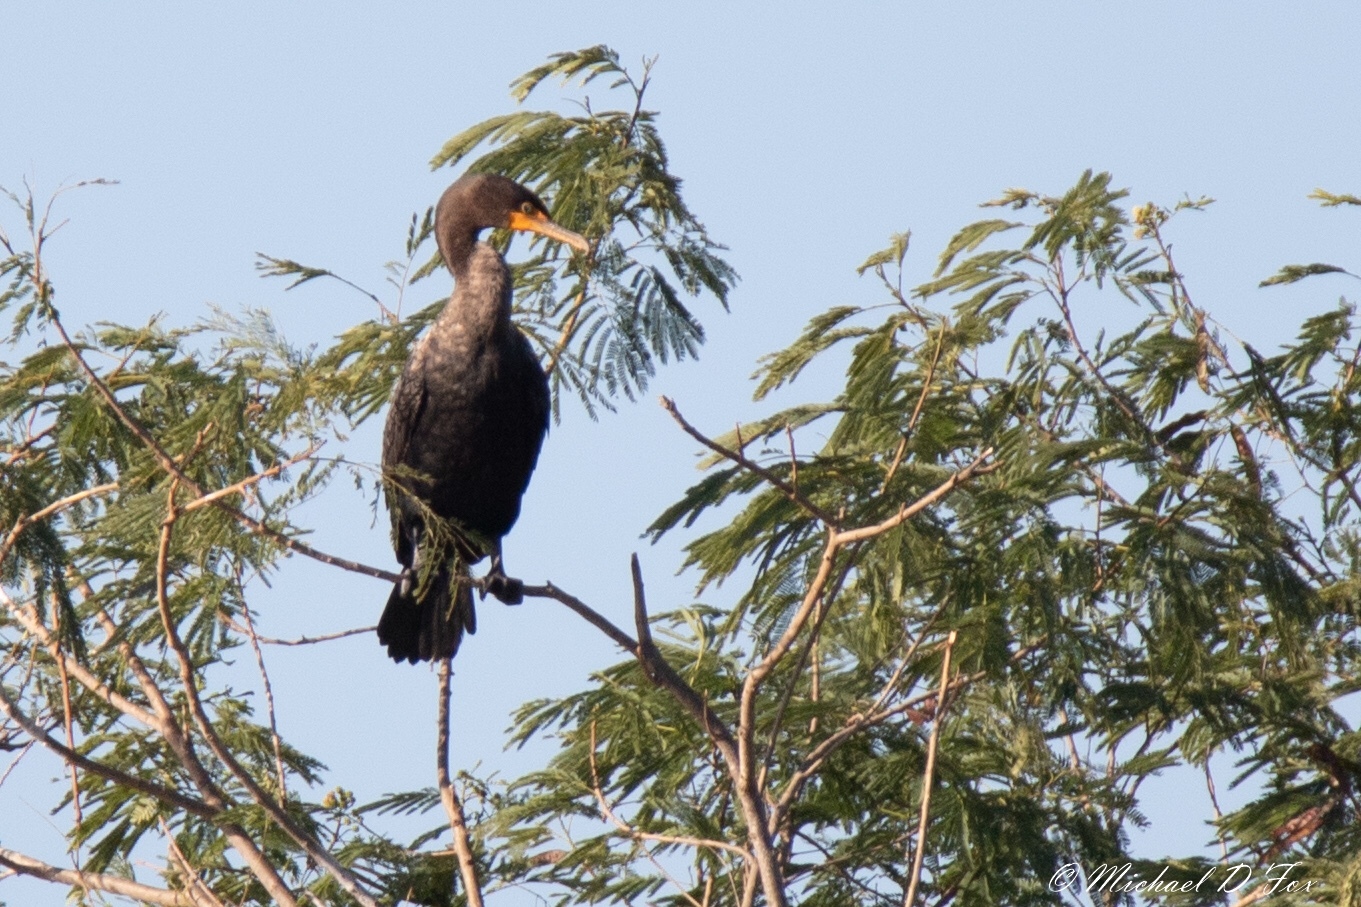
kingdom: Animalia
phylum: Chordata
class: Aves
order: Suliformes
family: Phalacrocoracidae
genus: Phalacrocorax
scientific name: Phalacrocorax auritus
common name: Double-crested cormorant
